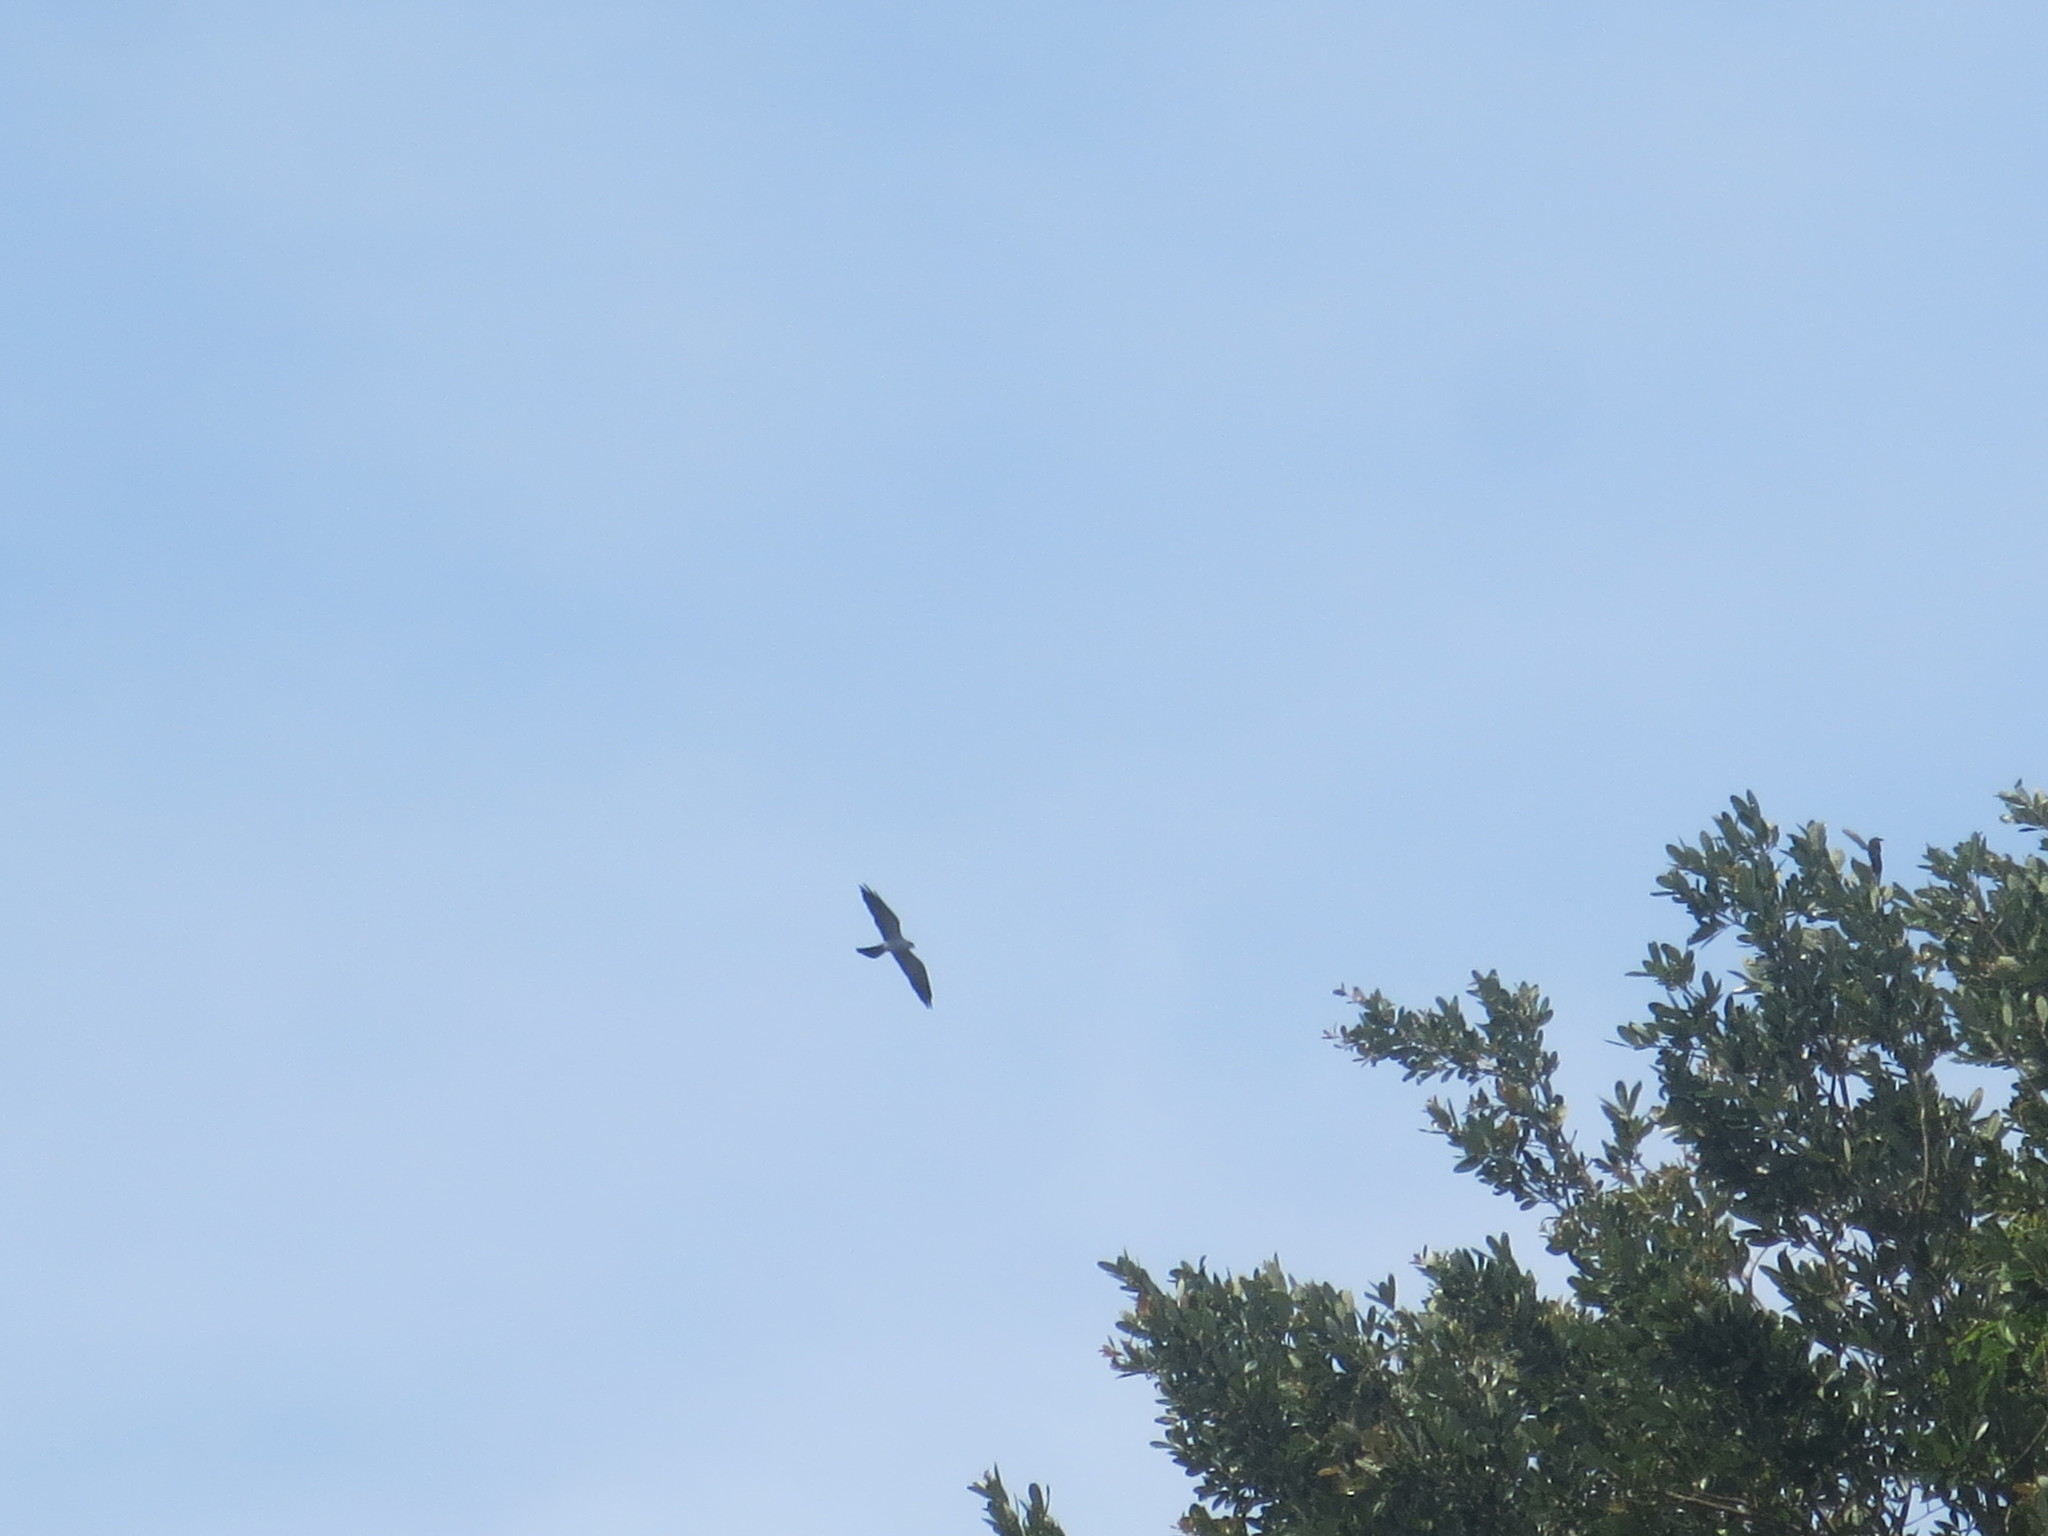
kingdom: Animalia
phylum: Chordata
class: Aves
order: Accipitriformes
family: Accipitridae
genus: Ictinia
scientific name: Ictinia mississippiensis
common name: Mississippi kite
